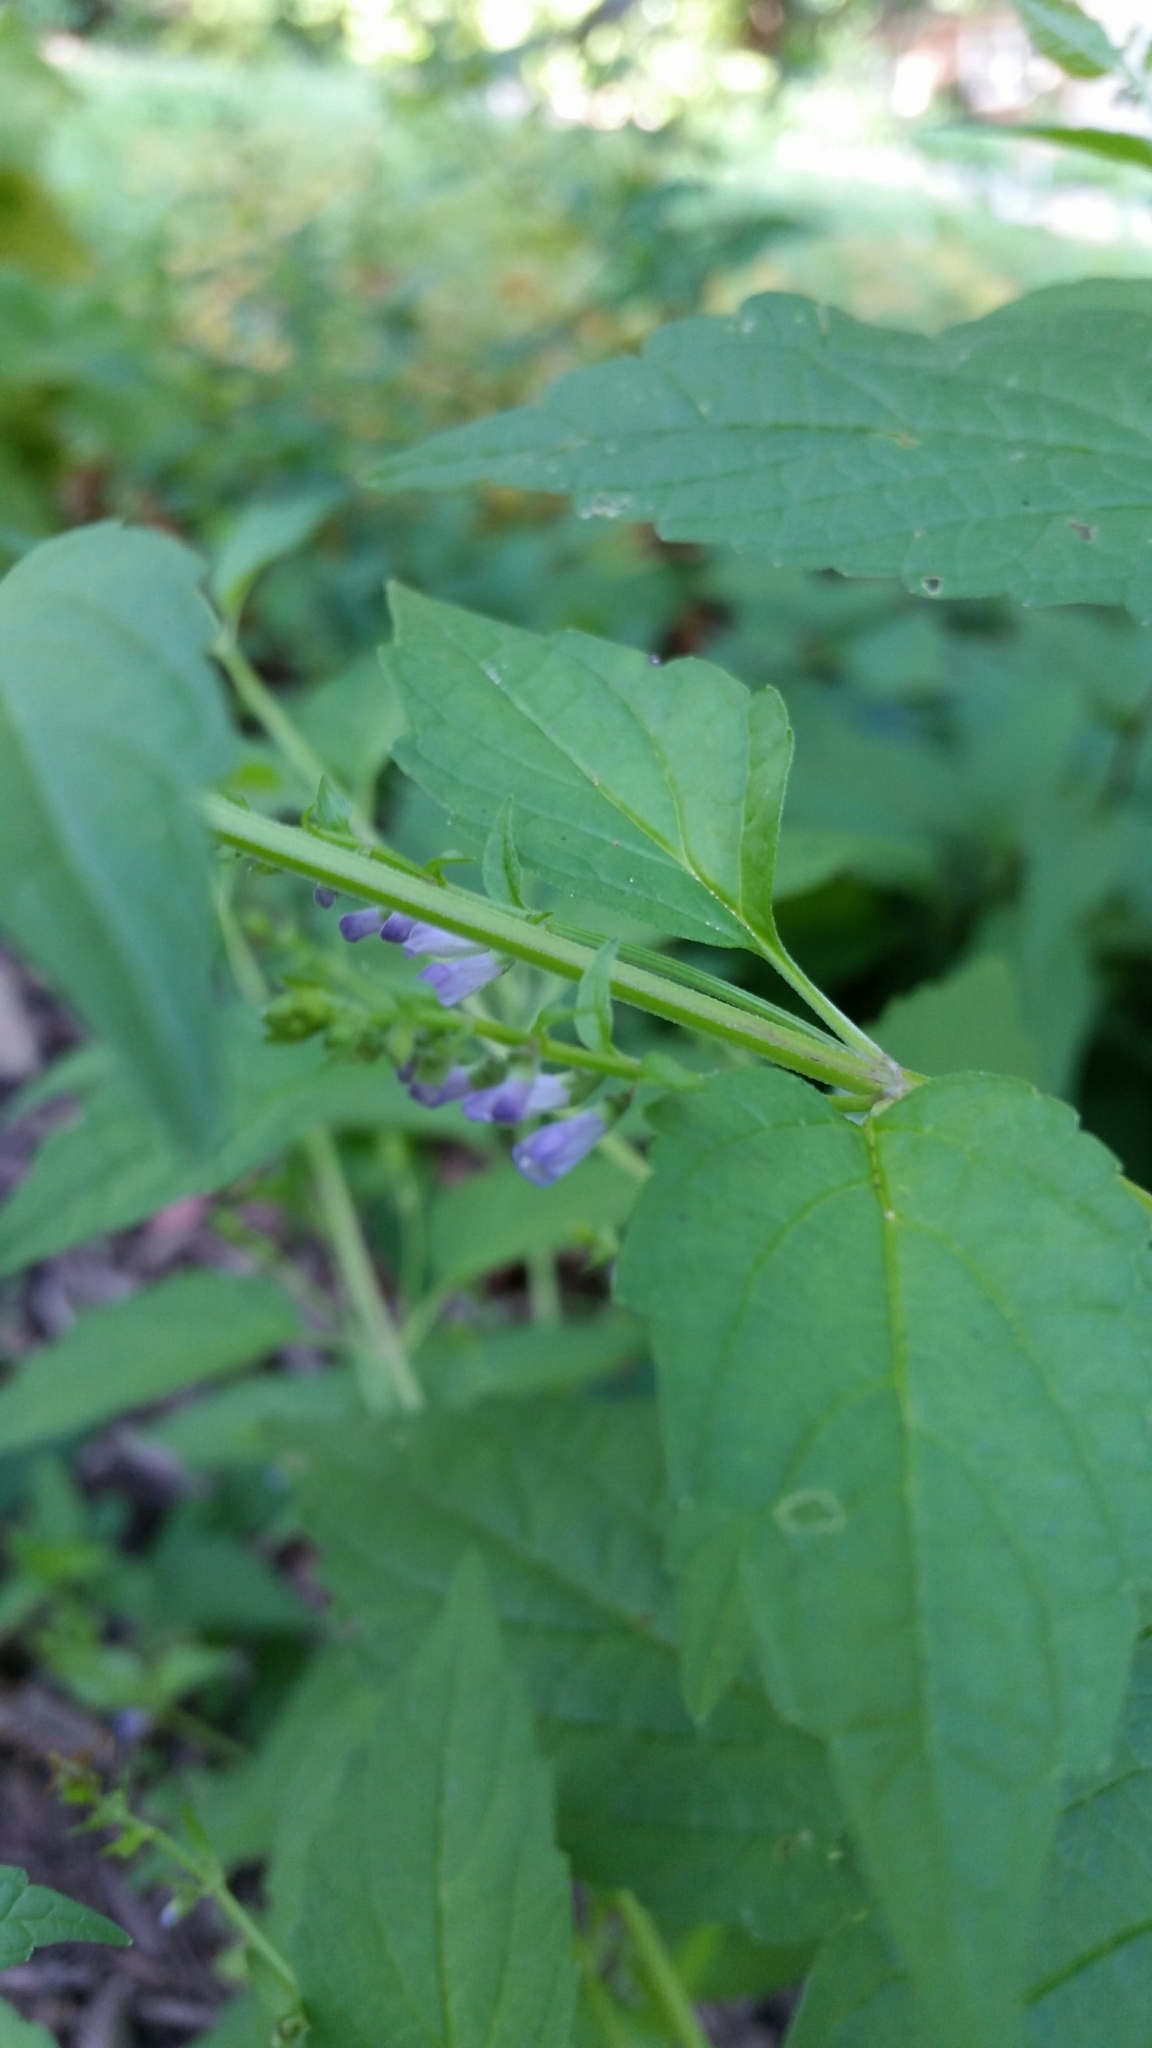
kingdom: Plantae
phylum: Tracheophyta
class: Magnoliopsida
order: Lamiales
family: Lamiaceae
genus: Scutellaria
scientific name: Scutellaria lateriflora
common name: Blue skullcap
